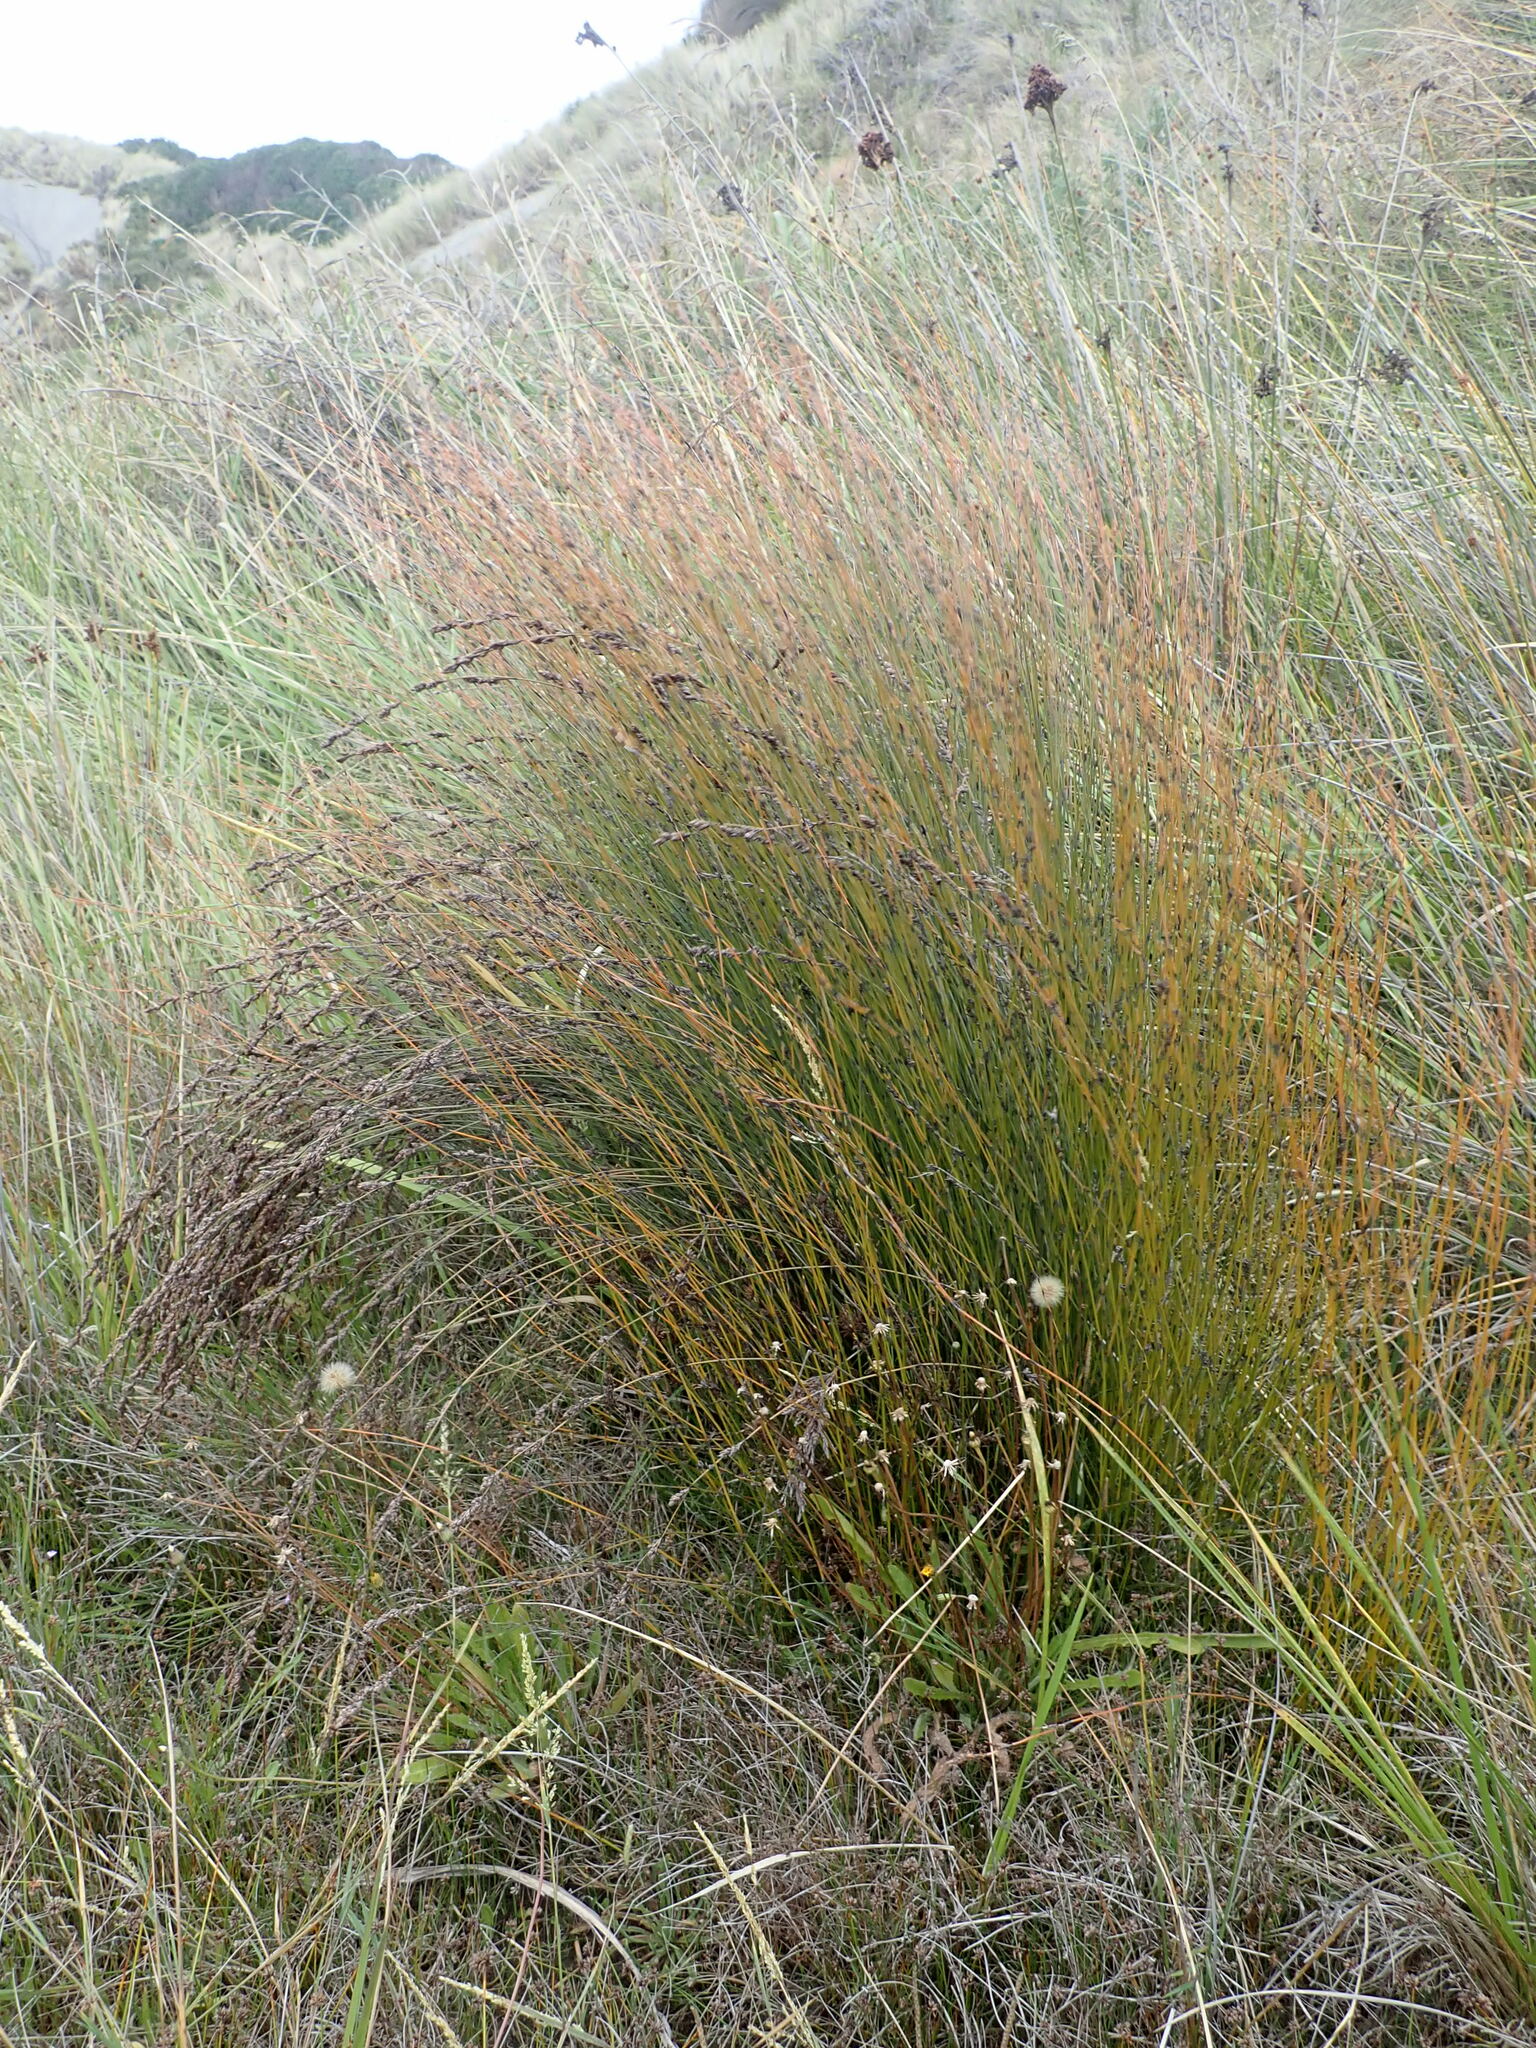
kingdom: Plantae
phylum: Tracheophyta
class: Liliopsida
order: Poales
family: Restionaceae
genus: Apodasmia
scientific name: Apodasmia similis
